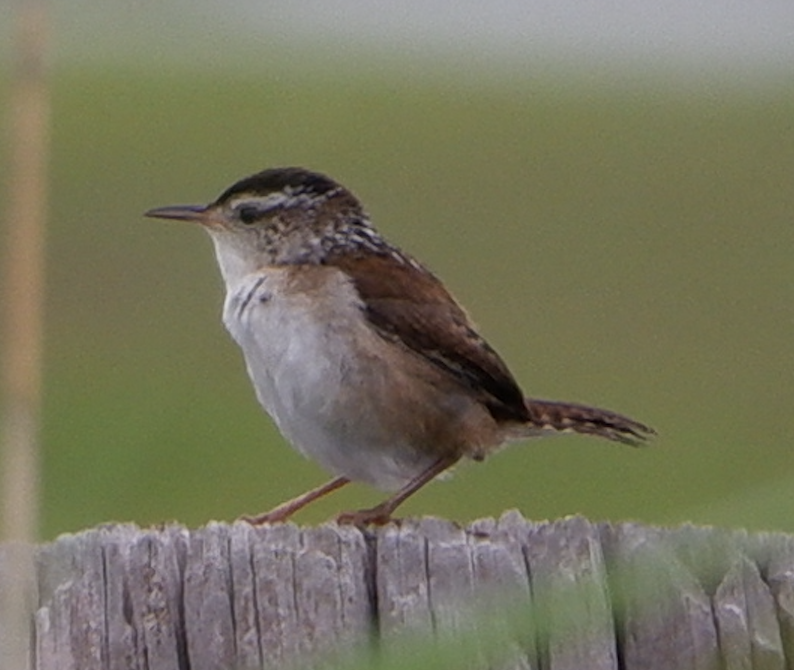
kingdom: Animalia
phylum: Chordata
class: Aves
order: Passeriformes
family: Troglodytidae
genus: Cistothorus
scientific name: Cistothorus palustris
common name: Marsh wren
